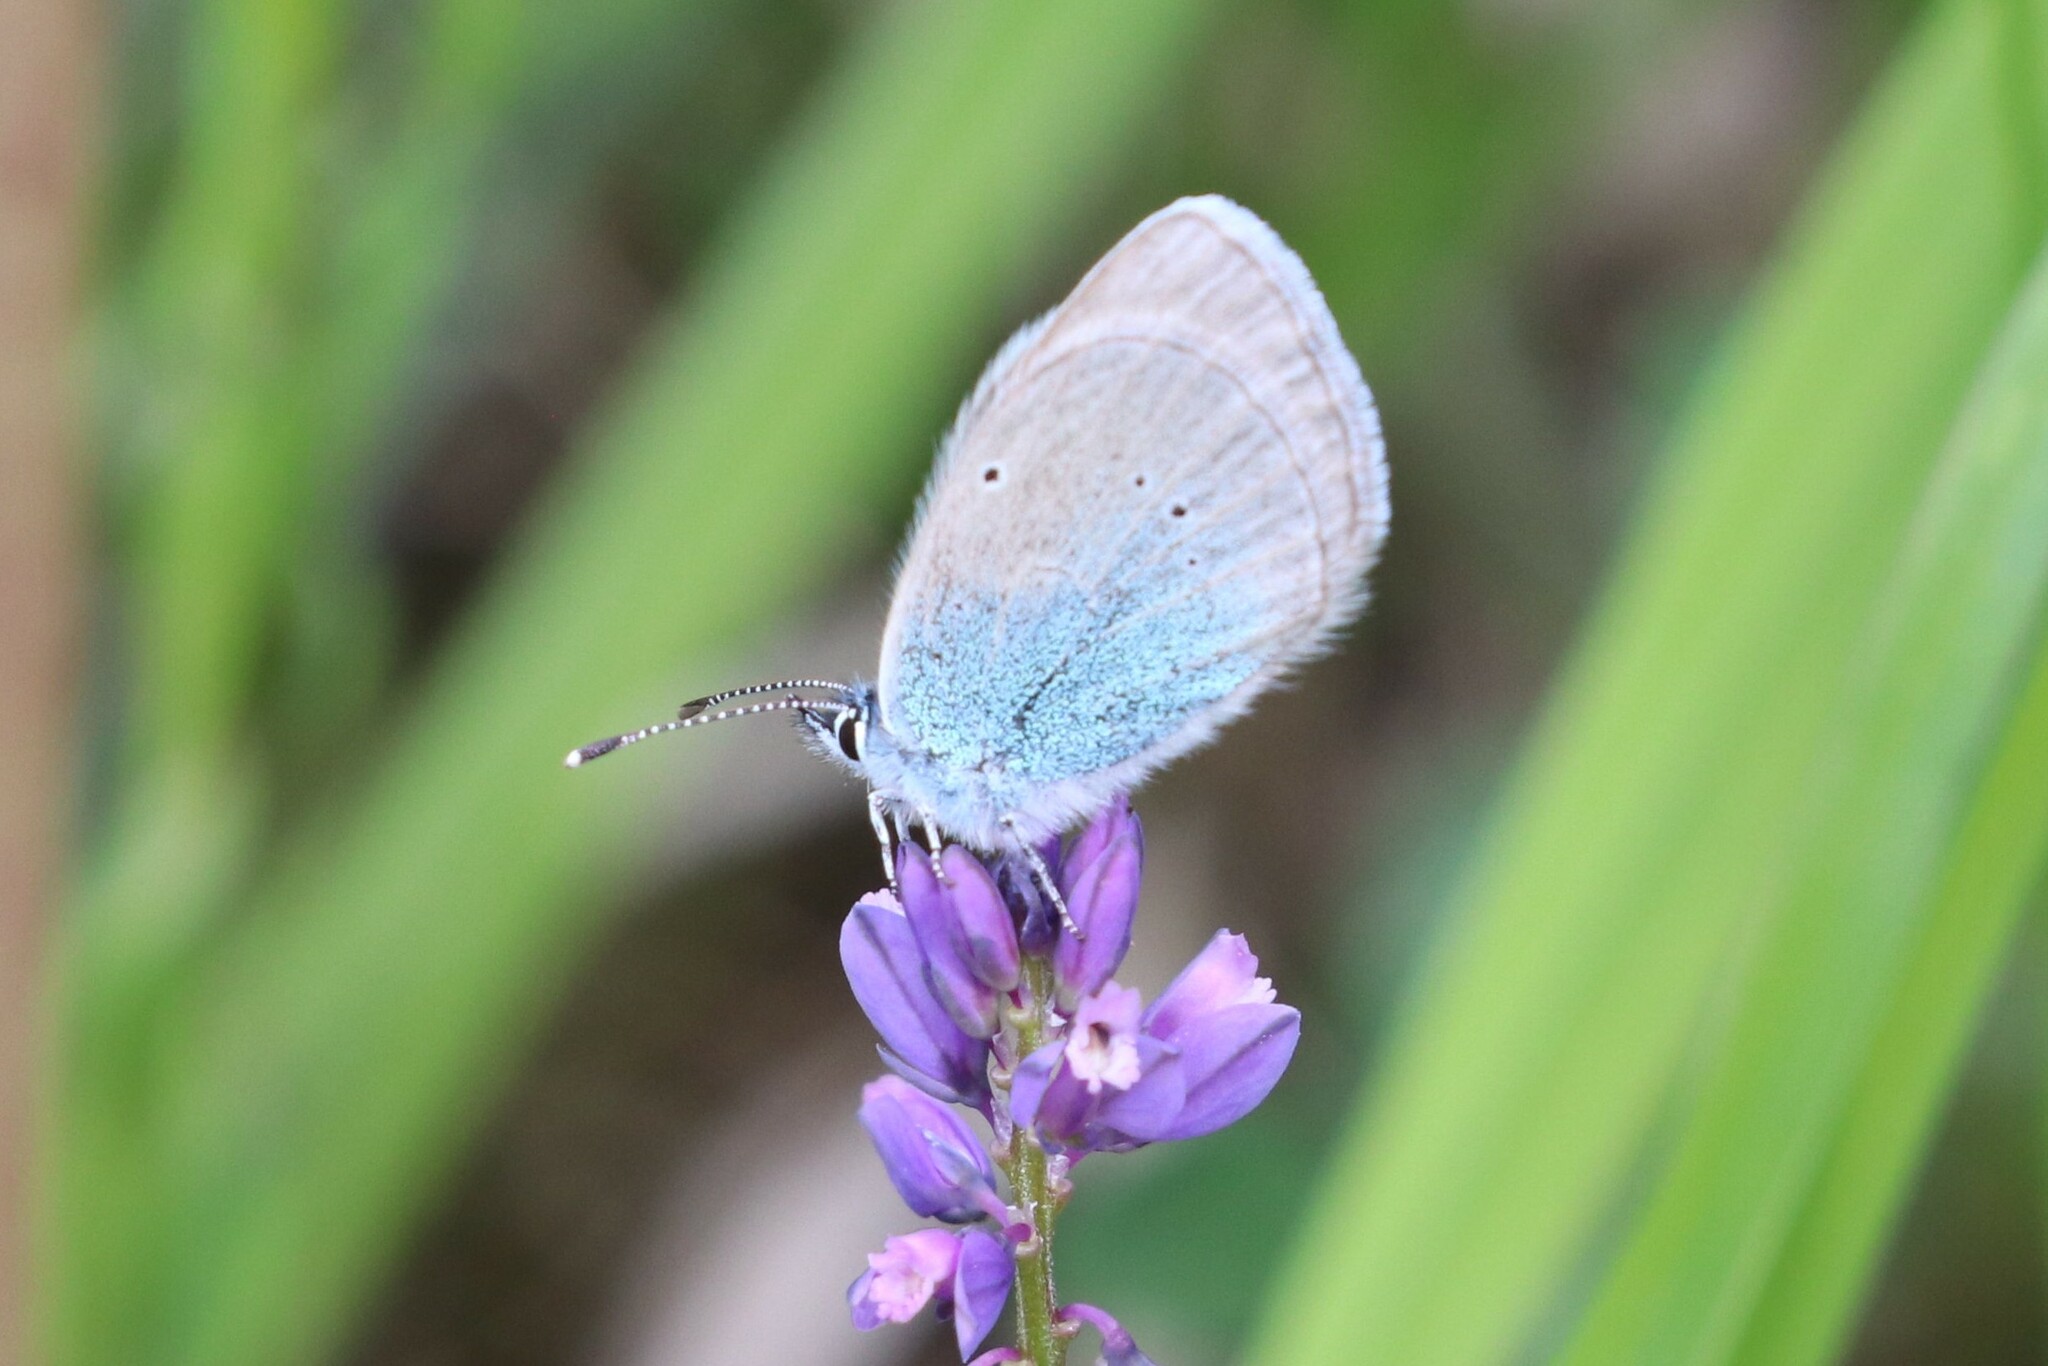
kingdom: Animalia
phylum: Arthropoda
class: Insecta
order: Lepidoptera
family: Lycaenidae
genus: Glaucopsyche
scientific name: Glaucopsyche alexis
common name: Green-underside blue
